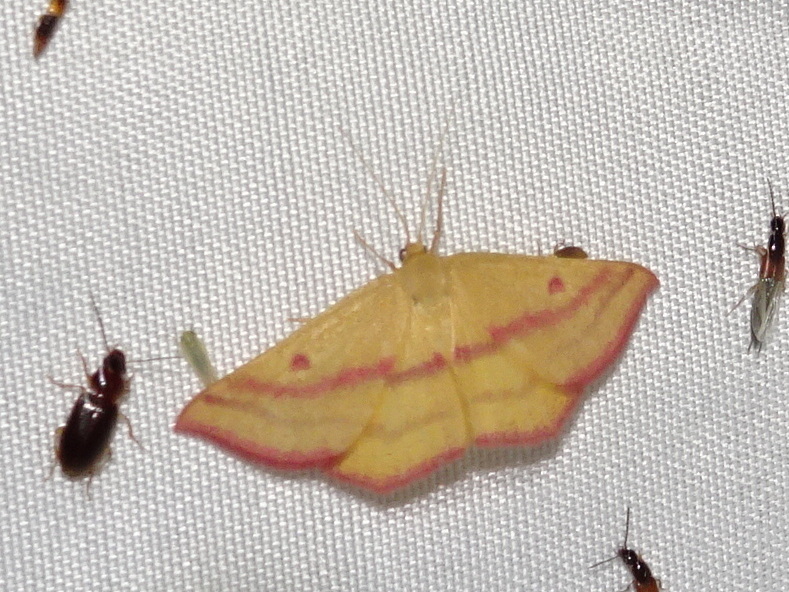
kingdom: Animalia
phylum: Arthropoda
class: Insecta
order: Lepidoptera
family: Geometridae
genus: Haematopis
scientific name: Haematopis grataria
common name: Chickweed geometer
